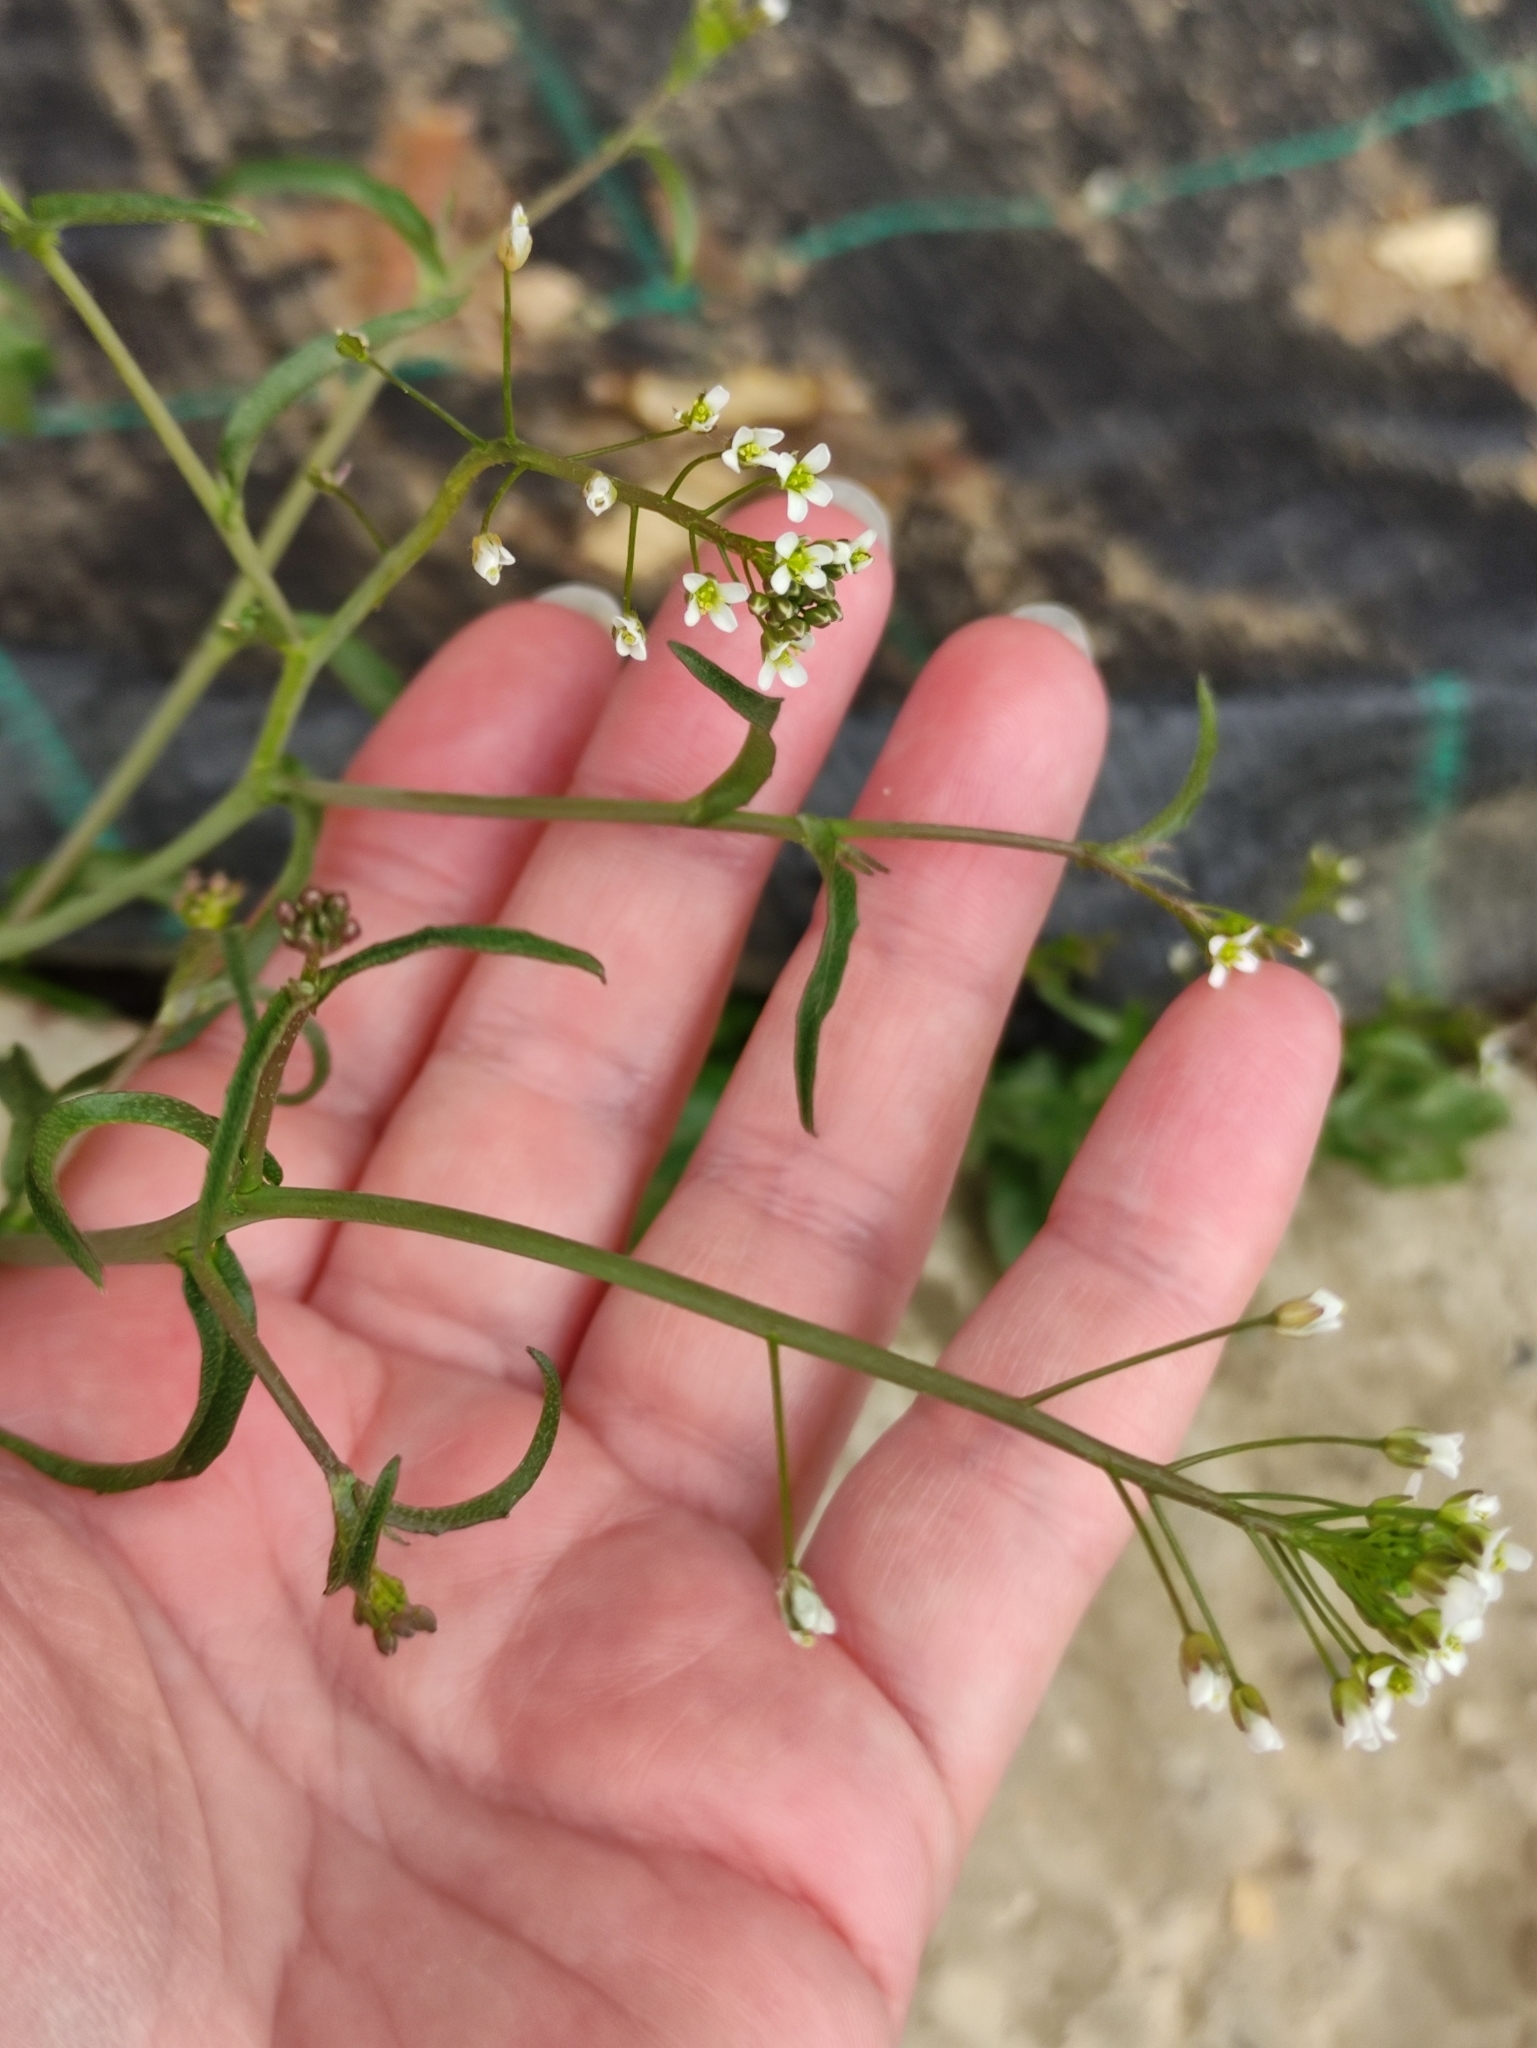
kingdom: Plantae
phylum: Tracheophyta
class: Magnoliopsida
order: Brassicales
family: Brassicaceae
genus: Capsella
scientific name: Capsella bursa-pastoris
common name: Shepherd's purse
